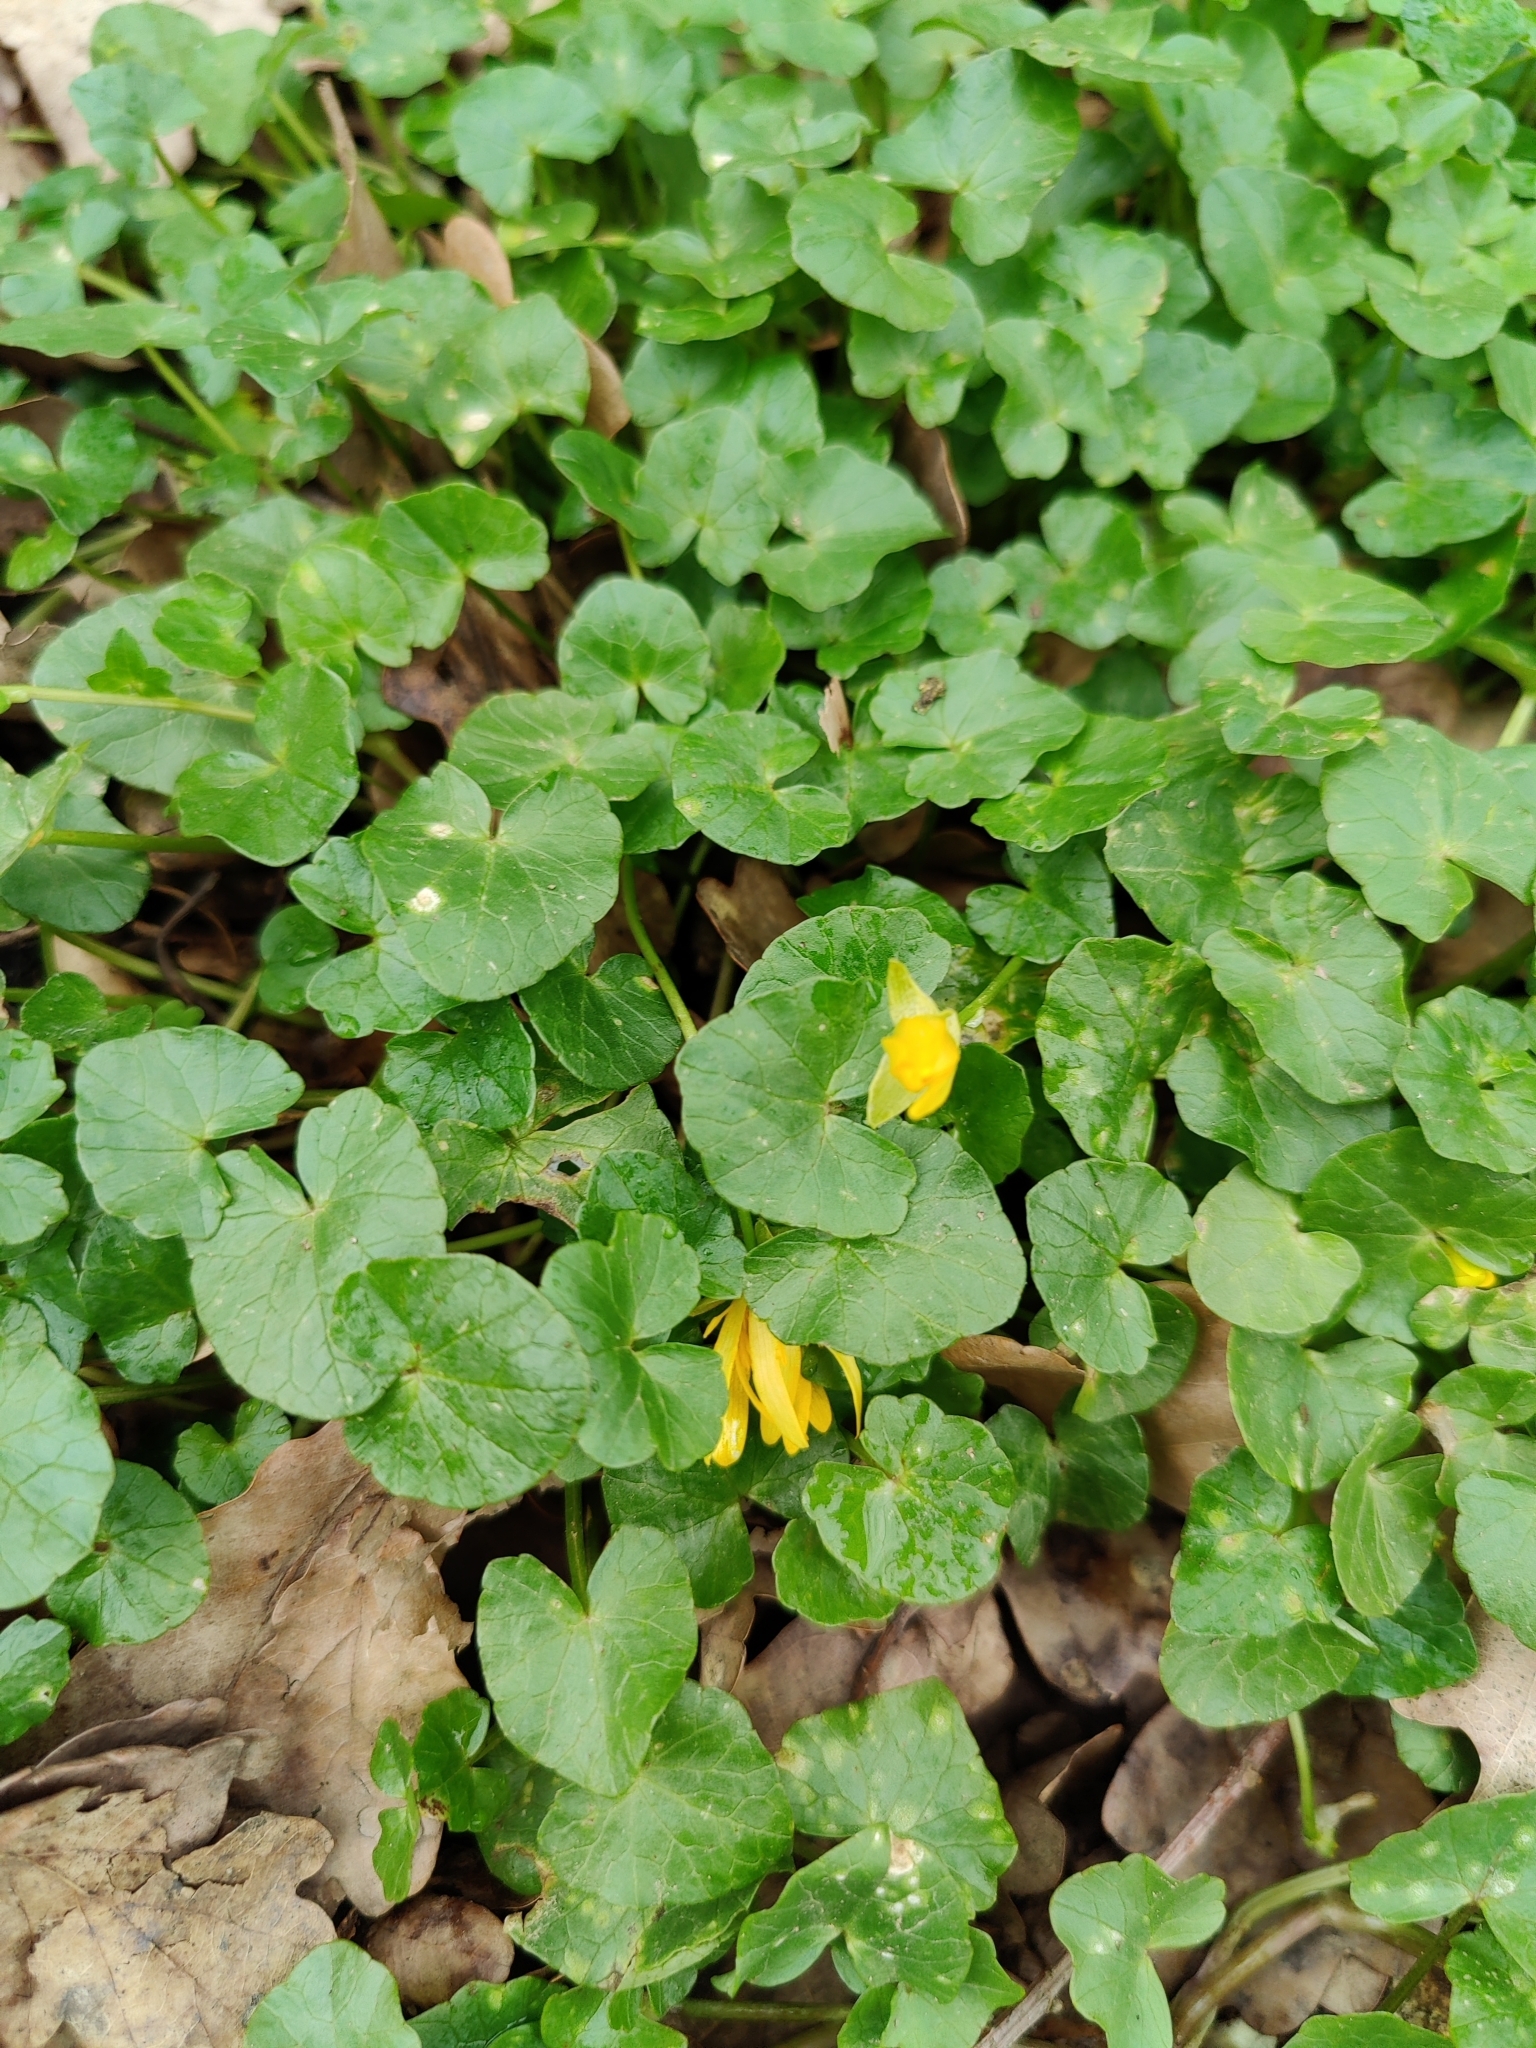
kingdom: Plantae
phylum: Tracheophyta
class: Magnoliopsida
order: Ranunculales
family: Ranunculaceae
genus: Ficaria
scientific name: Ficaria verna
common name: Lesser celandine
